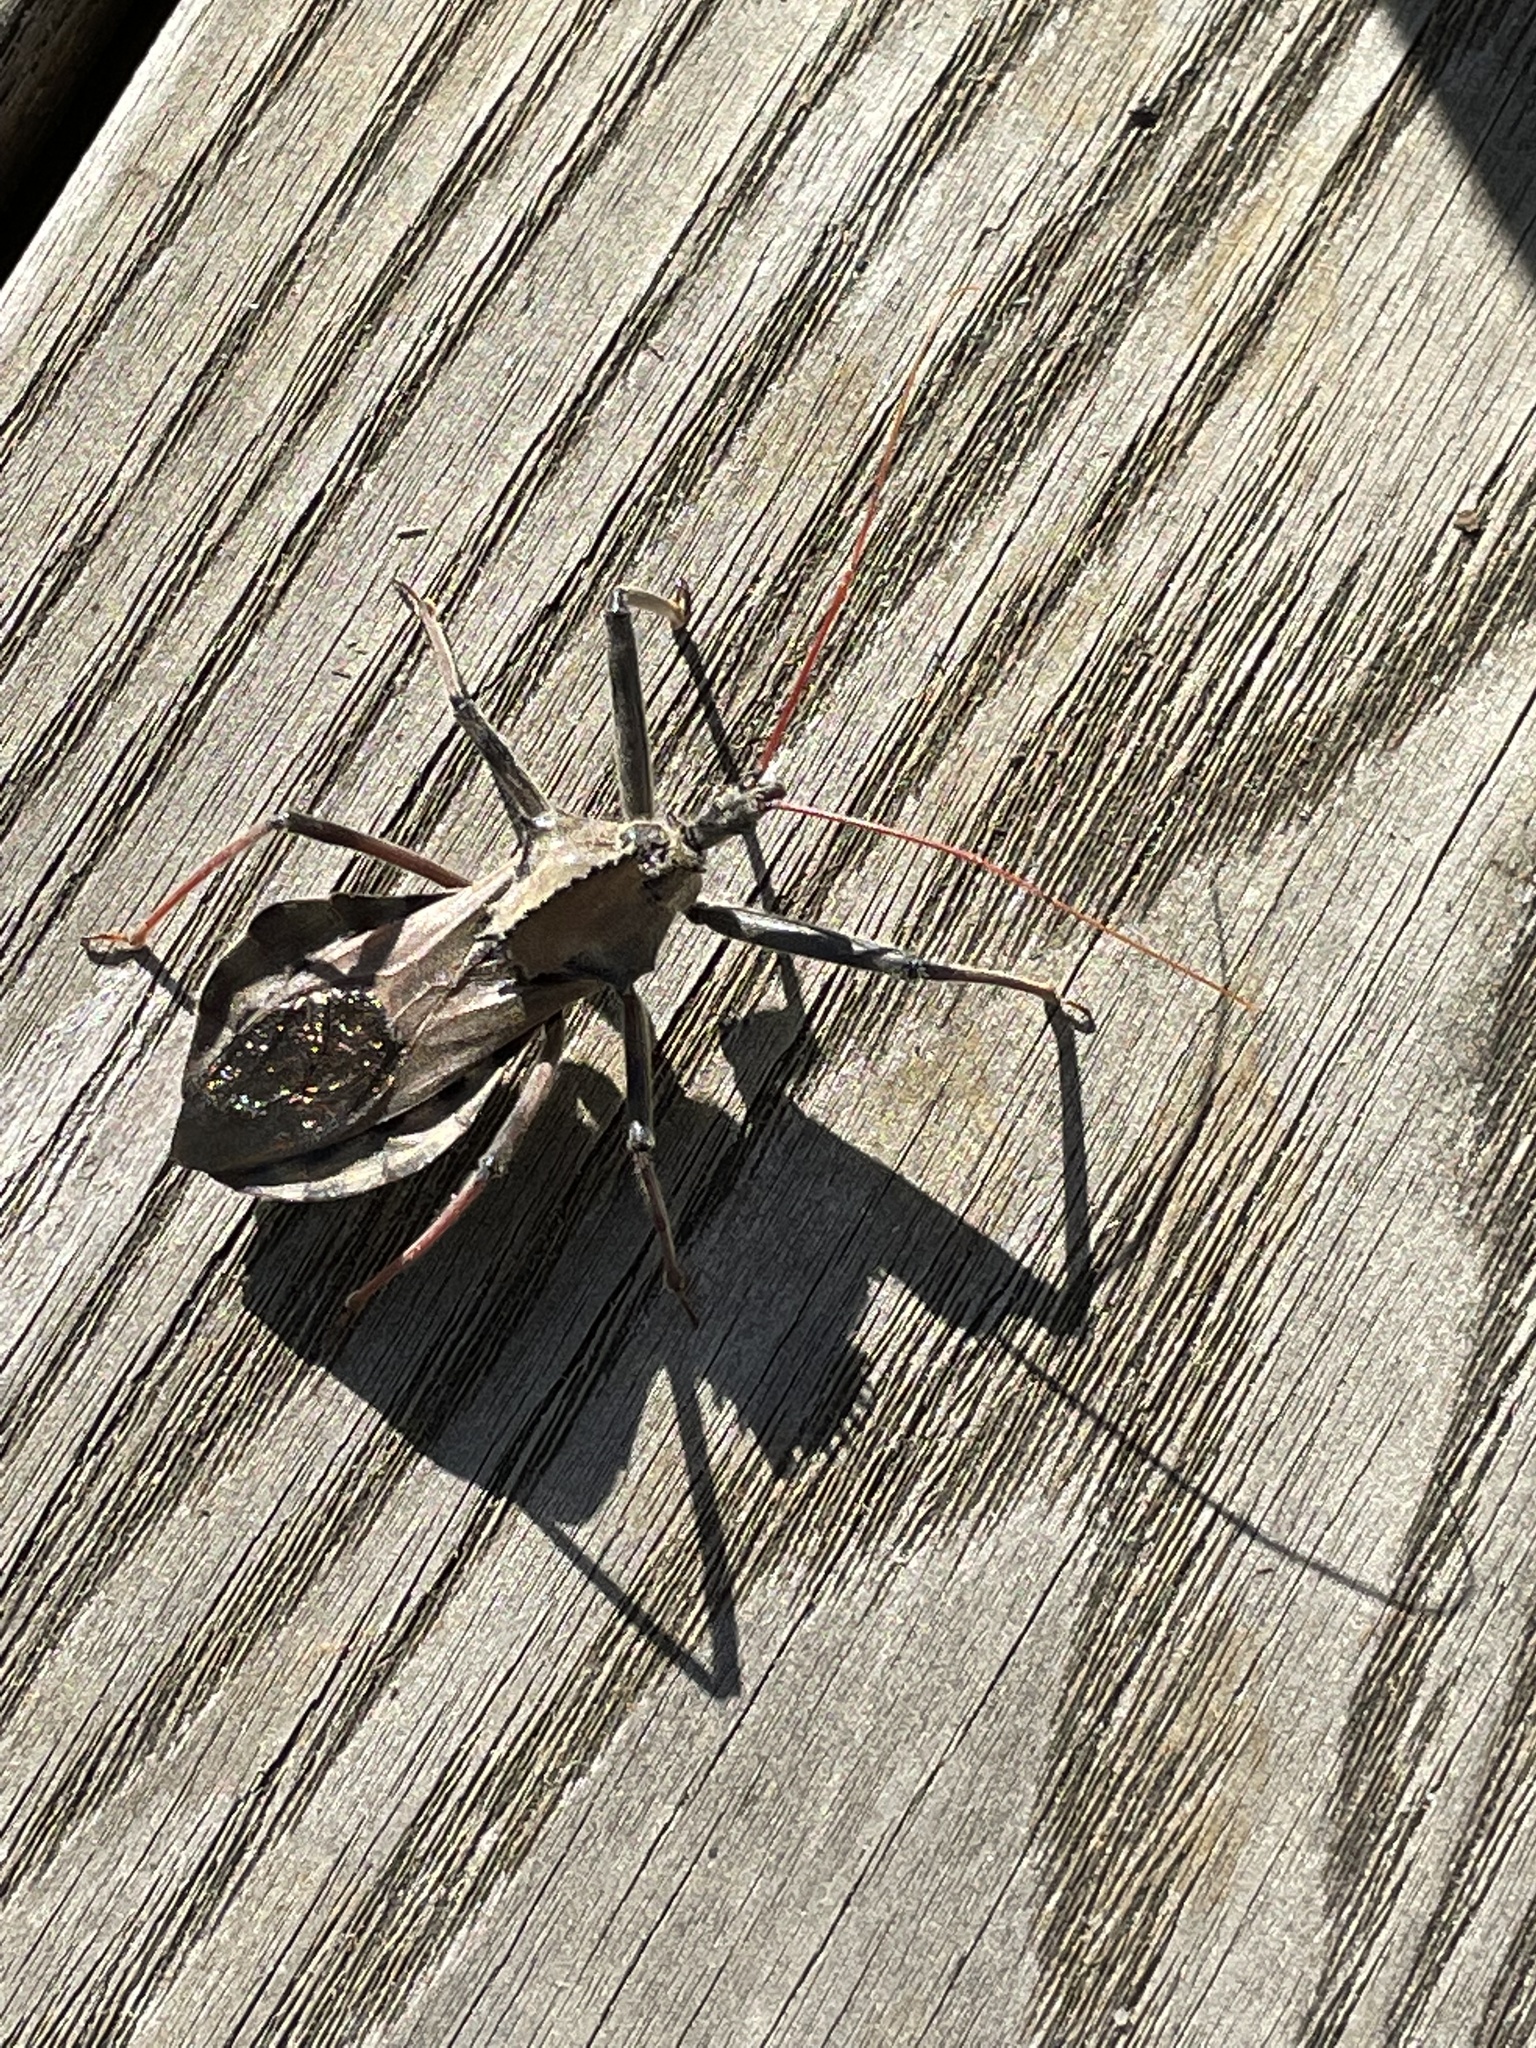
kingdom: Animalia
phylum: Arthropoda
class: Insecta
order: Hemiptera
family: Reduviidae
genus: Arilus
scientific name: Arilus cristatus
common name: North american wheel bug
